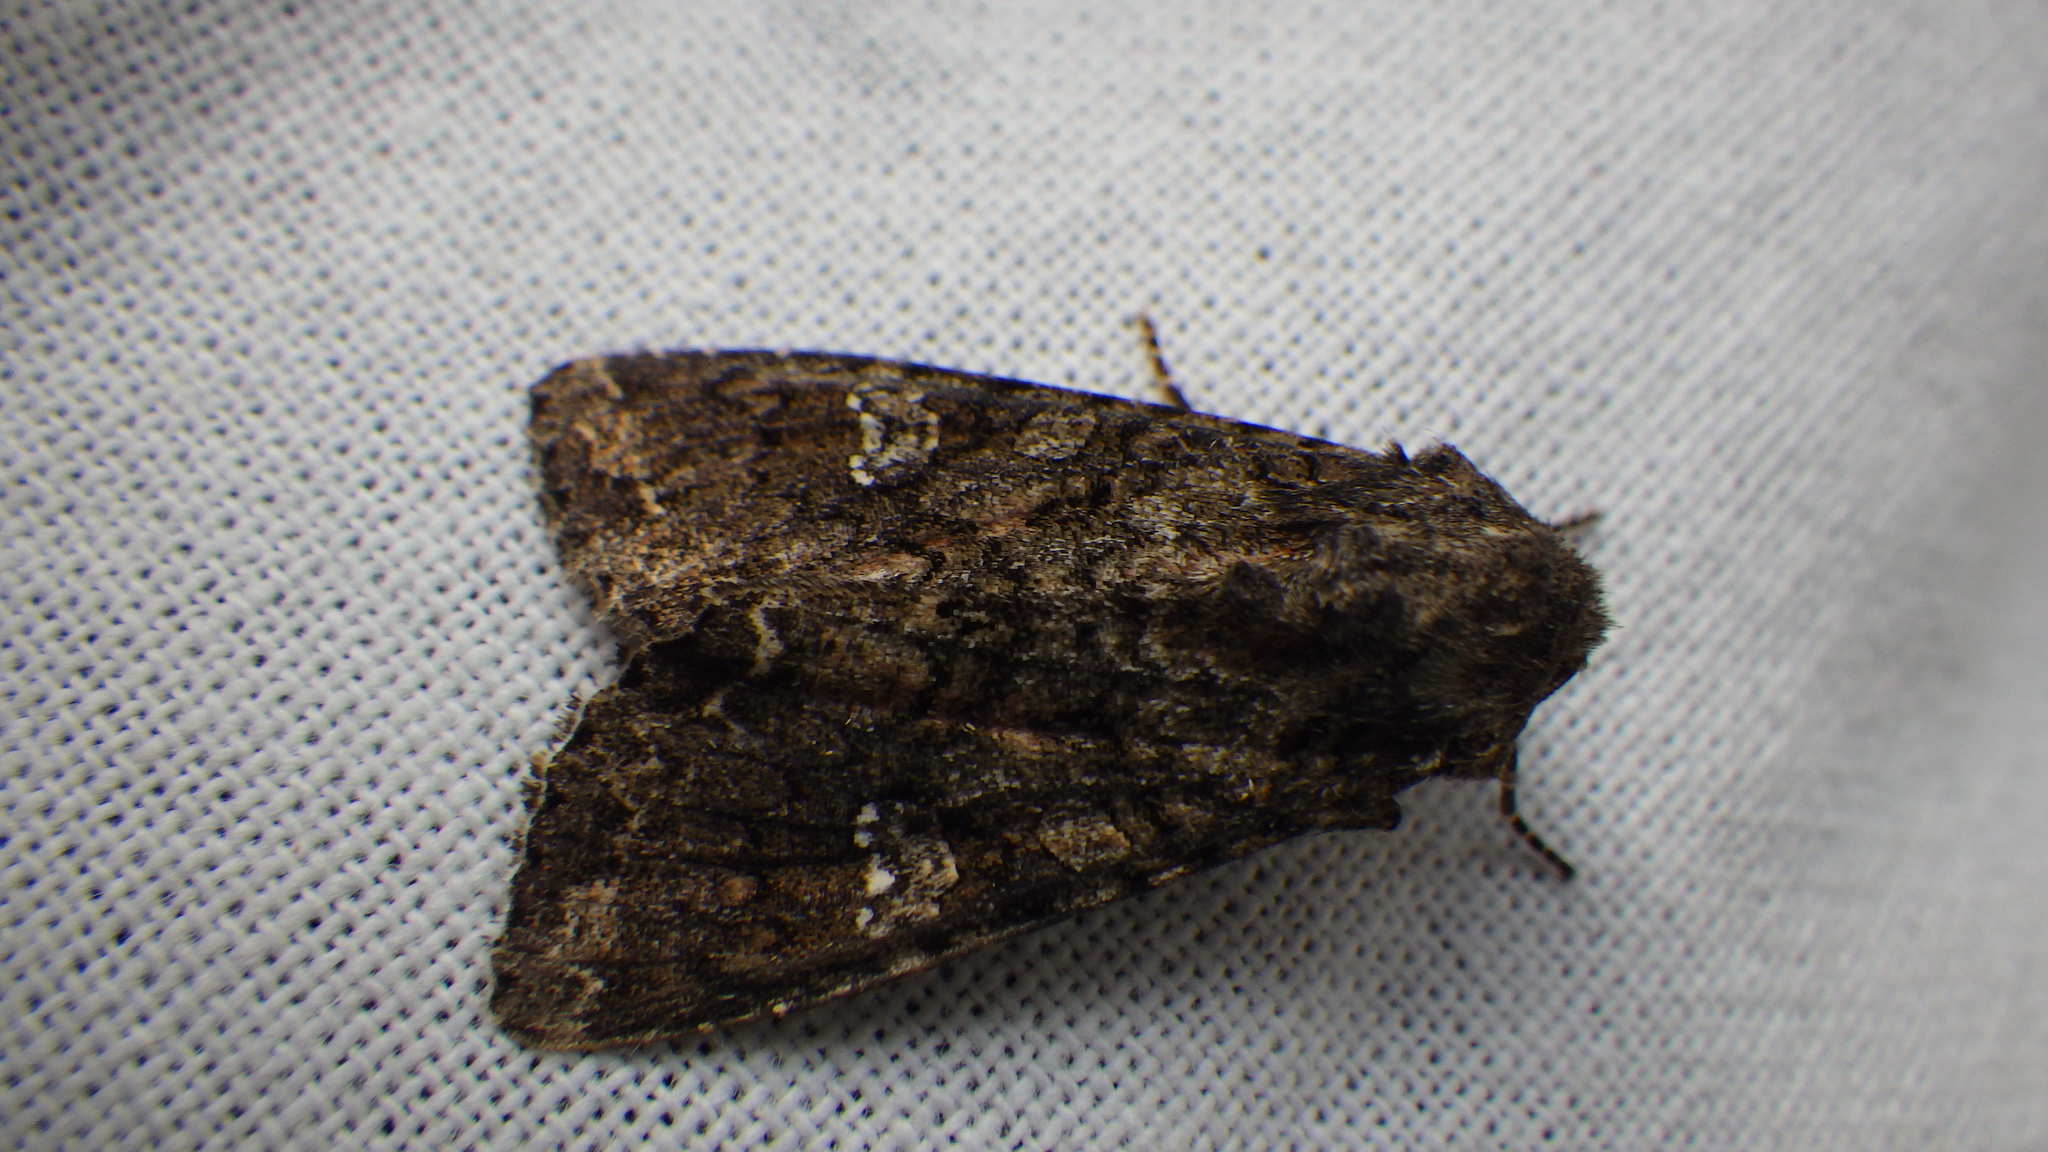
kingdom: Animalia
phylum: Arthropoda
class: Insecta
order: Lepidoptera
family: Noctuidae
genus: Mamestra
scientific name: Mamestra brassicae
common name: Cabbage moth
